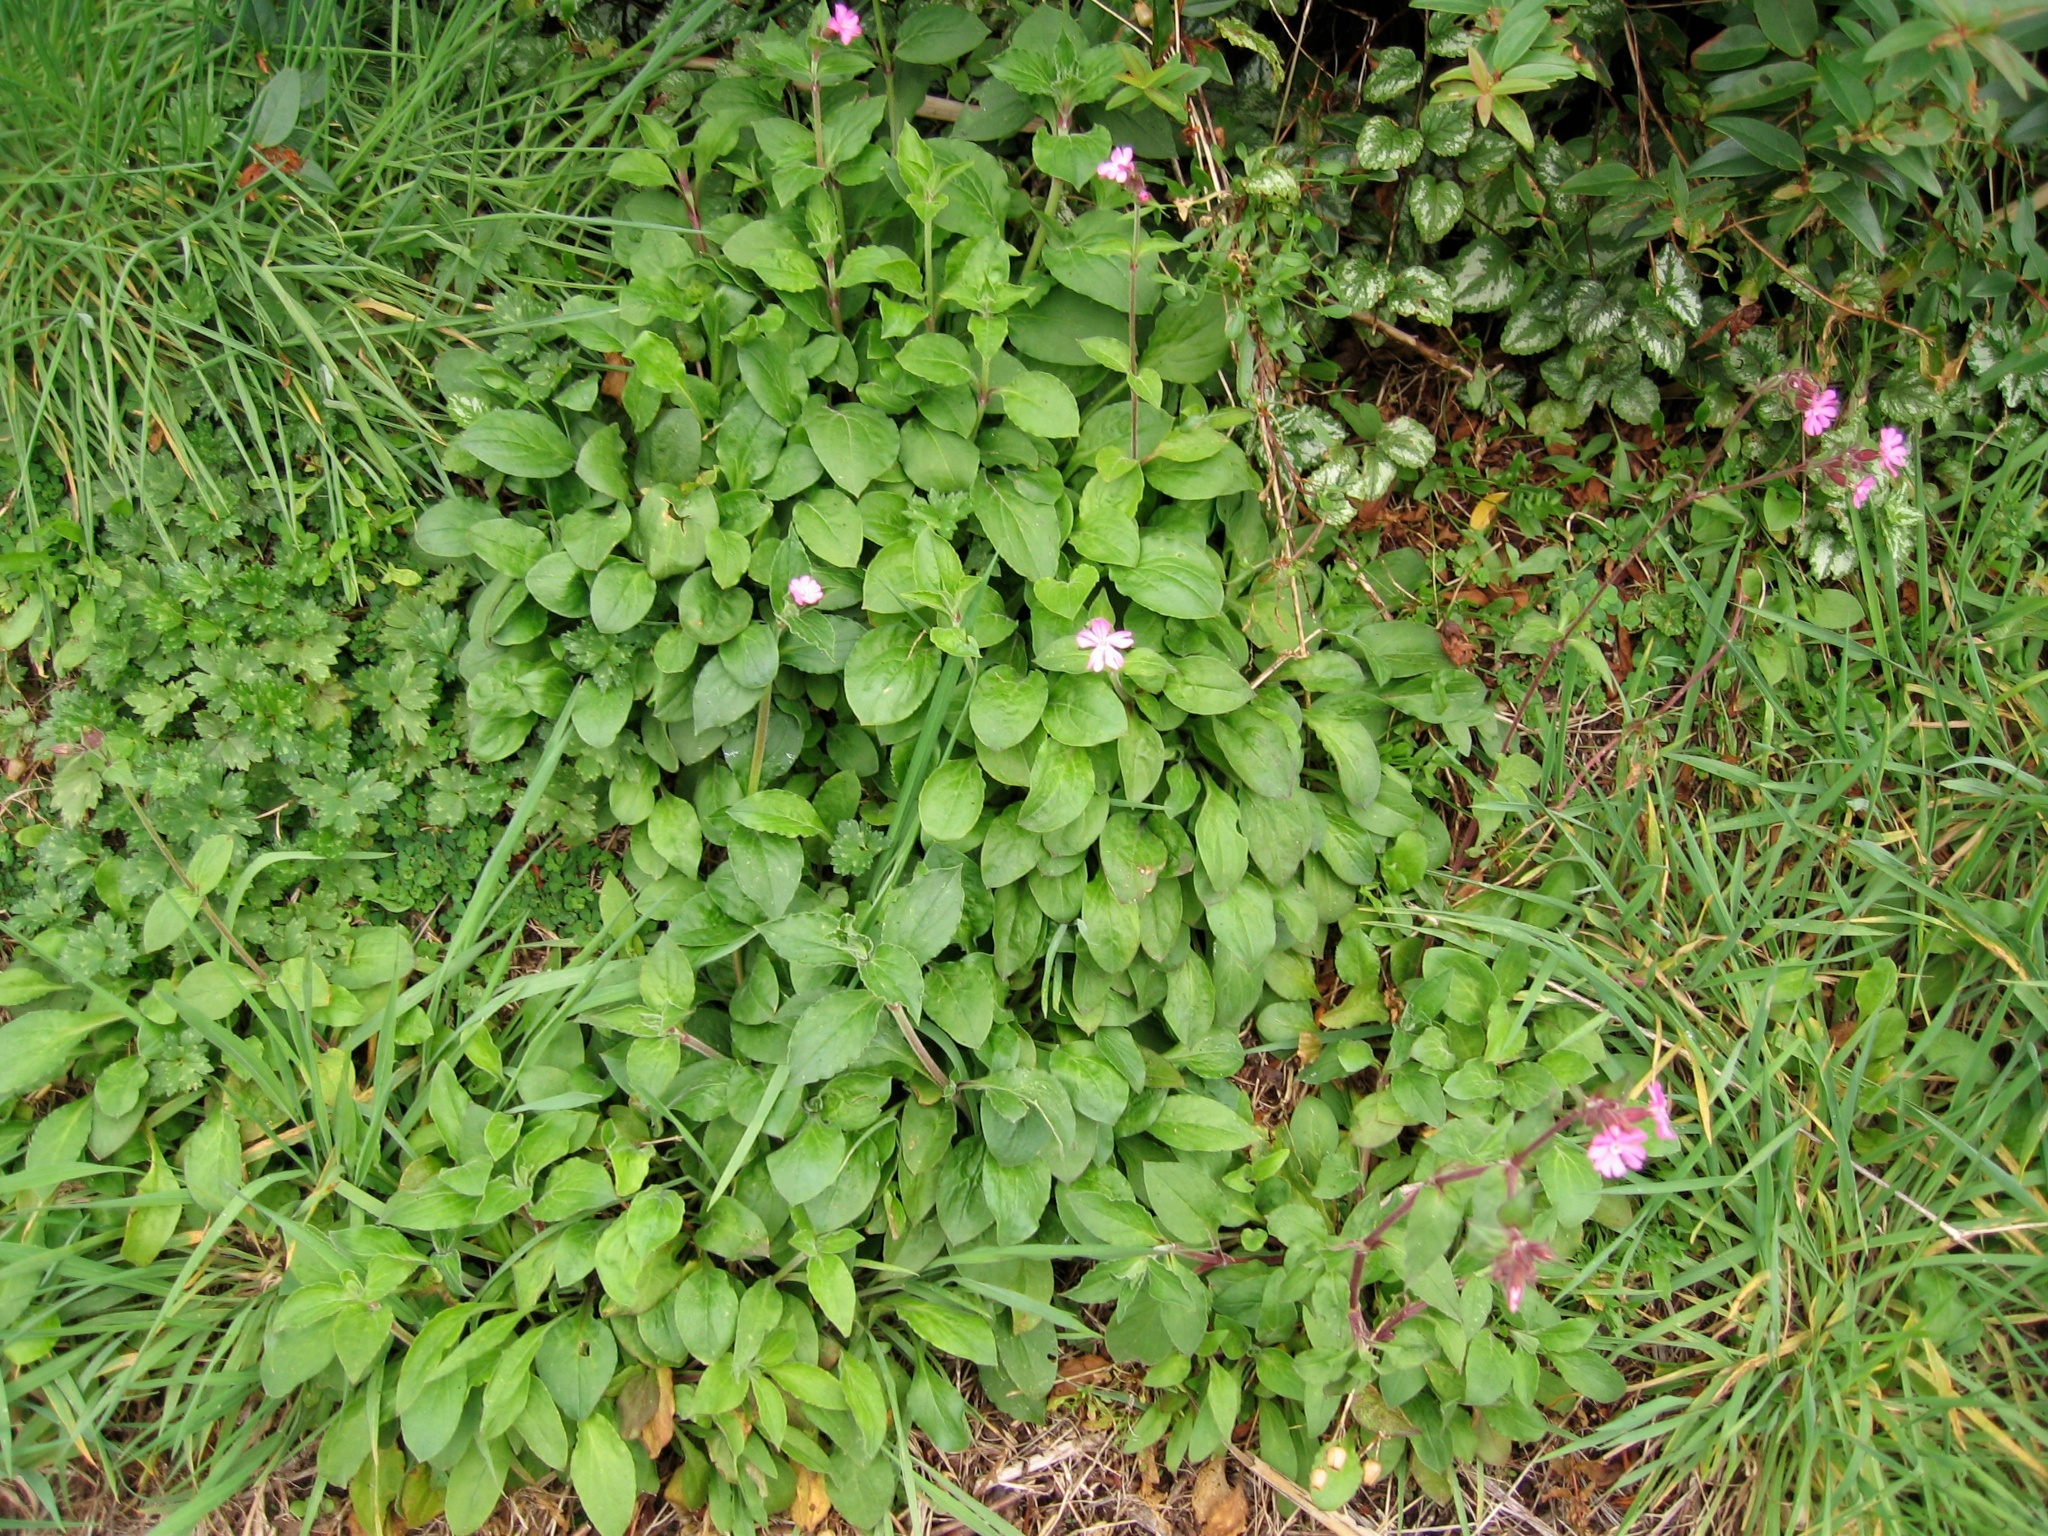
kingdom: Plantae
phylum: Tracheophyta
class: Magnoliopsida
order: Caryophyllales
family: Caryophyllaceae
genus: Silene
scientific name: Silene dioica
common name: Red campion
